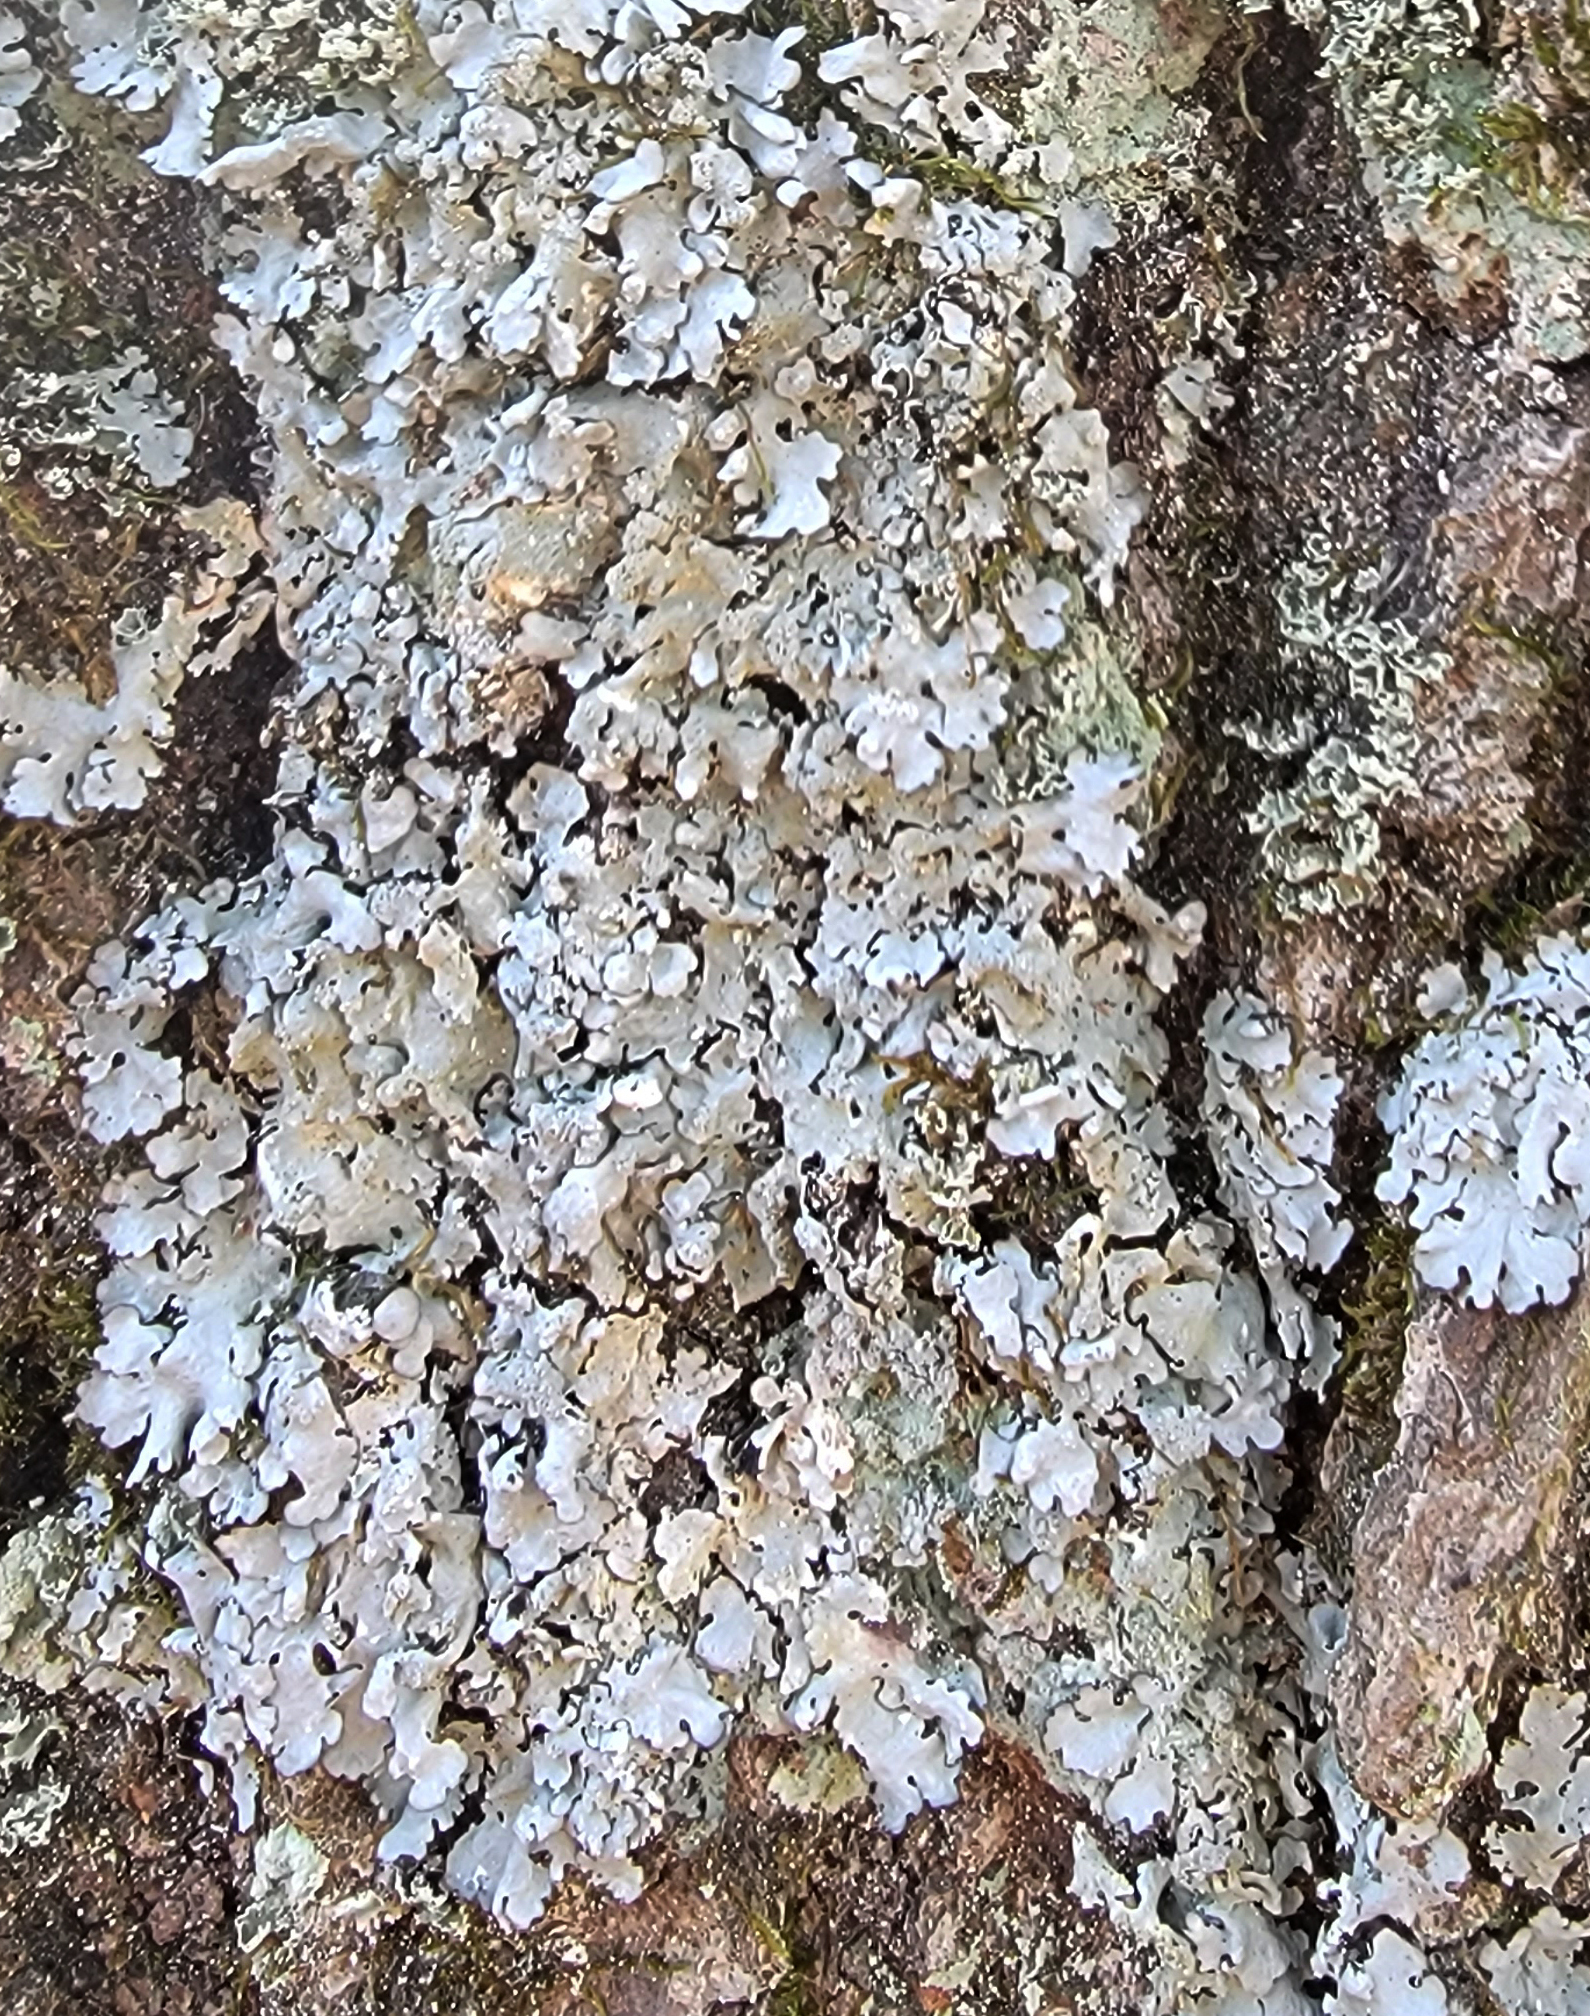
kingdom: Fungi
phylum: Ascomycota
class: Lecanoromycetes
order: Lecanorales
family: Parmeliaceae
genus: Myelochroa
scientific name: Myelochroa aurulenta
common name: Powdery axil-bristle lichen
